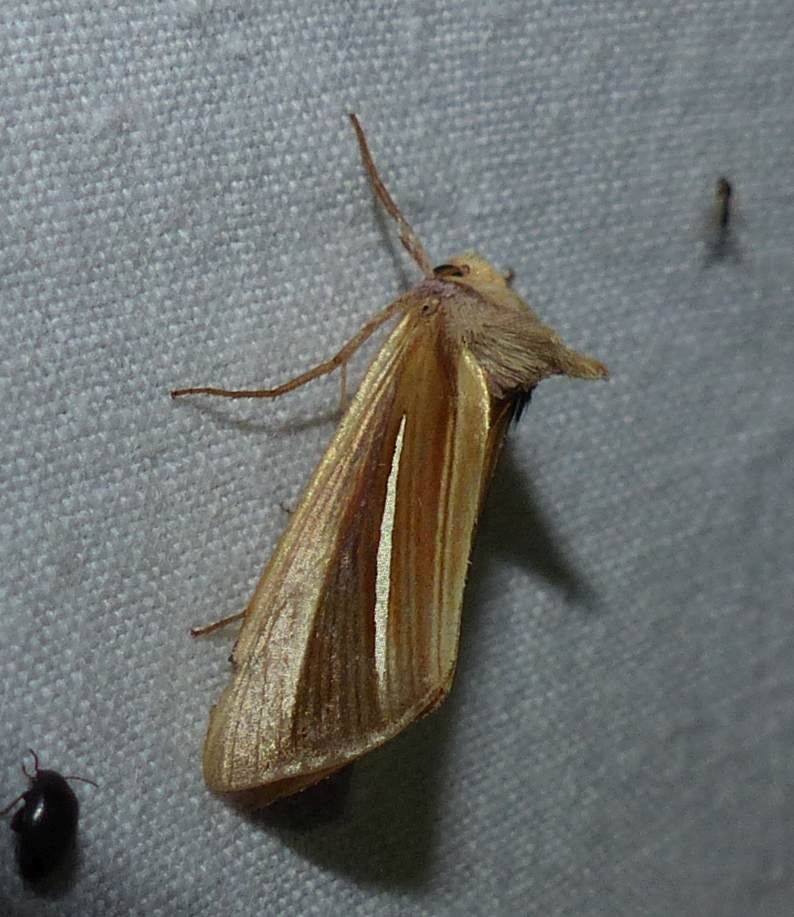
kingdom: Animalia
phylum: Arthropoda
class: Insecta
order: Lepidoptera
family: Noctuidae
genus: Plusia
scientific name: Plusia venusta
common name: White-streaked looper moth
